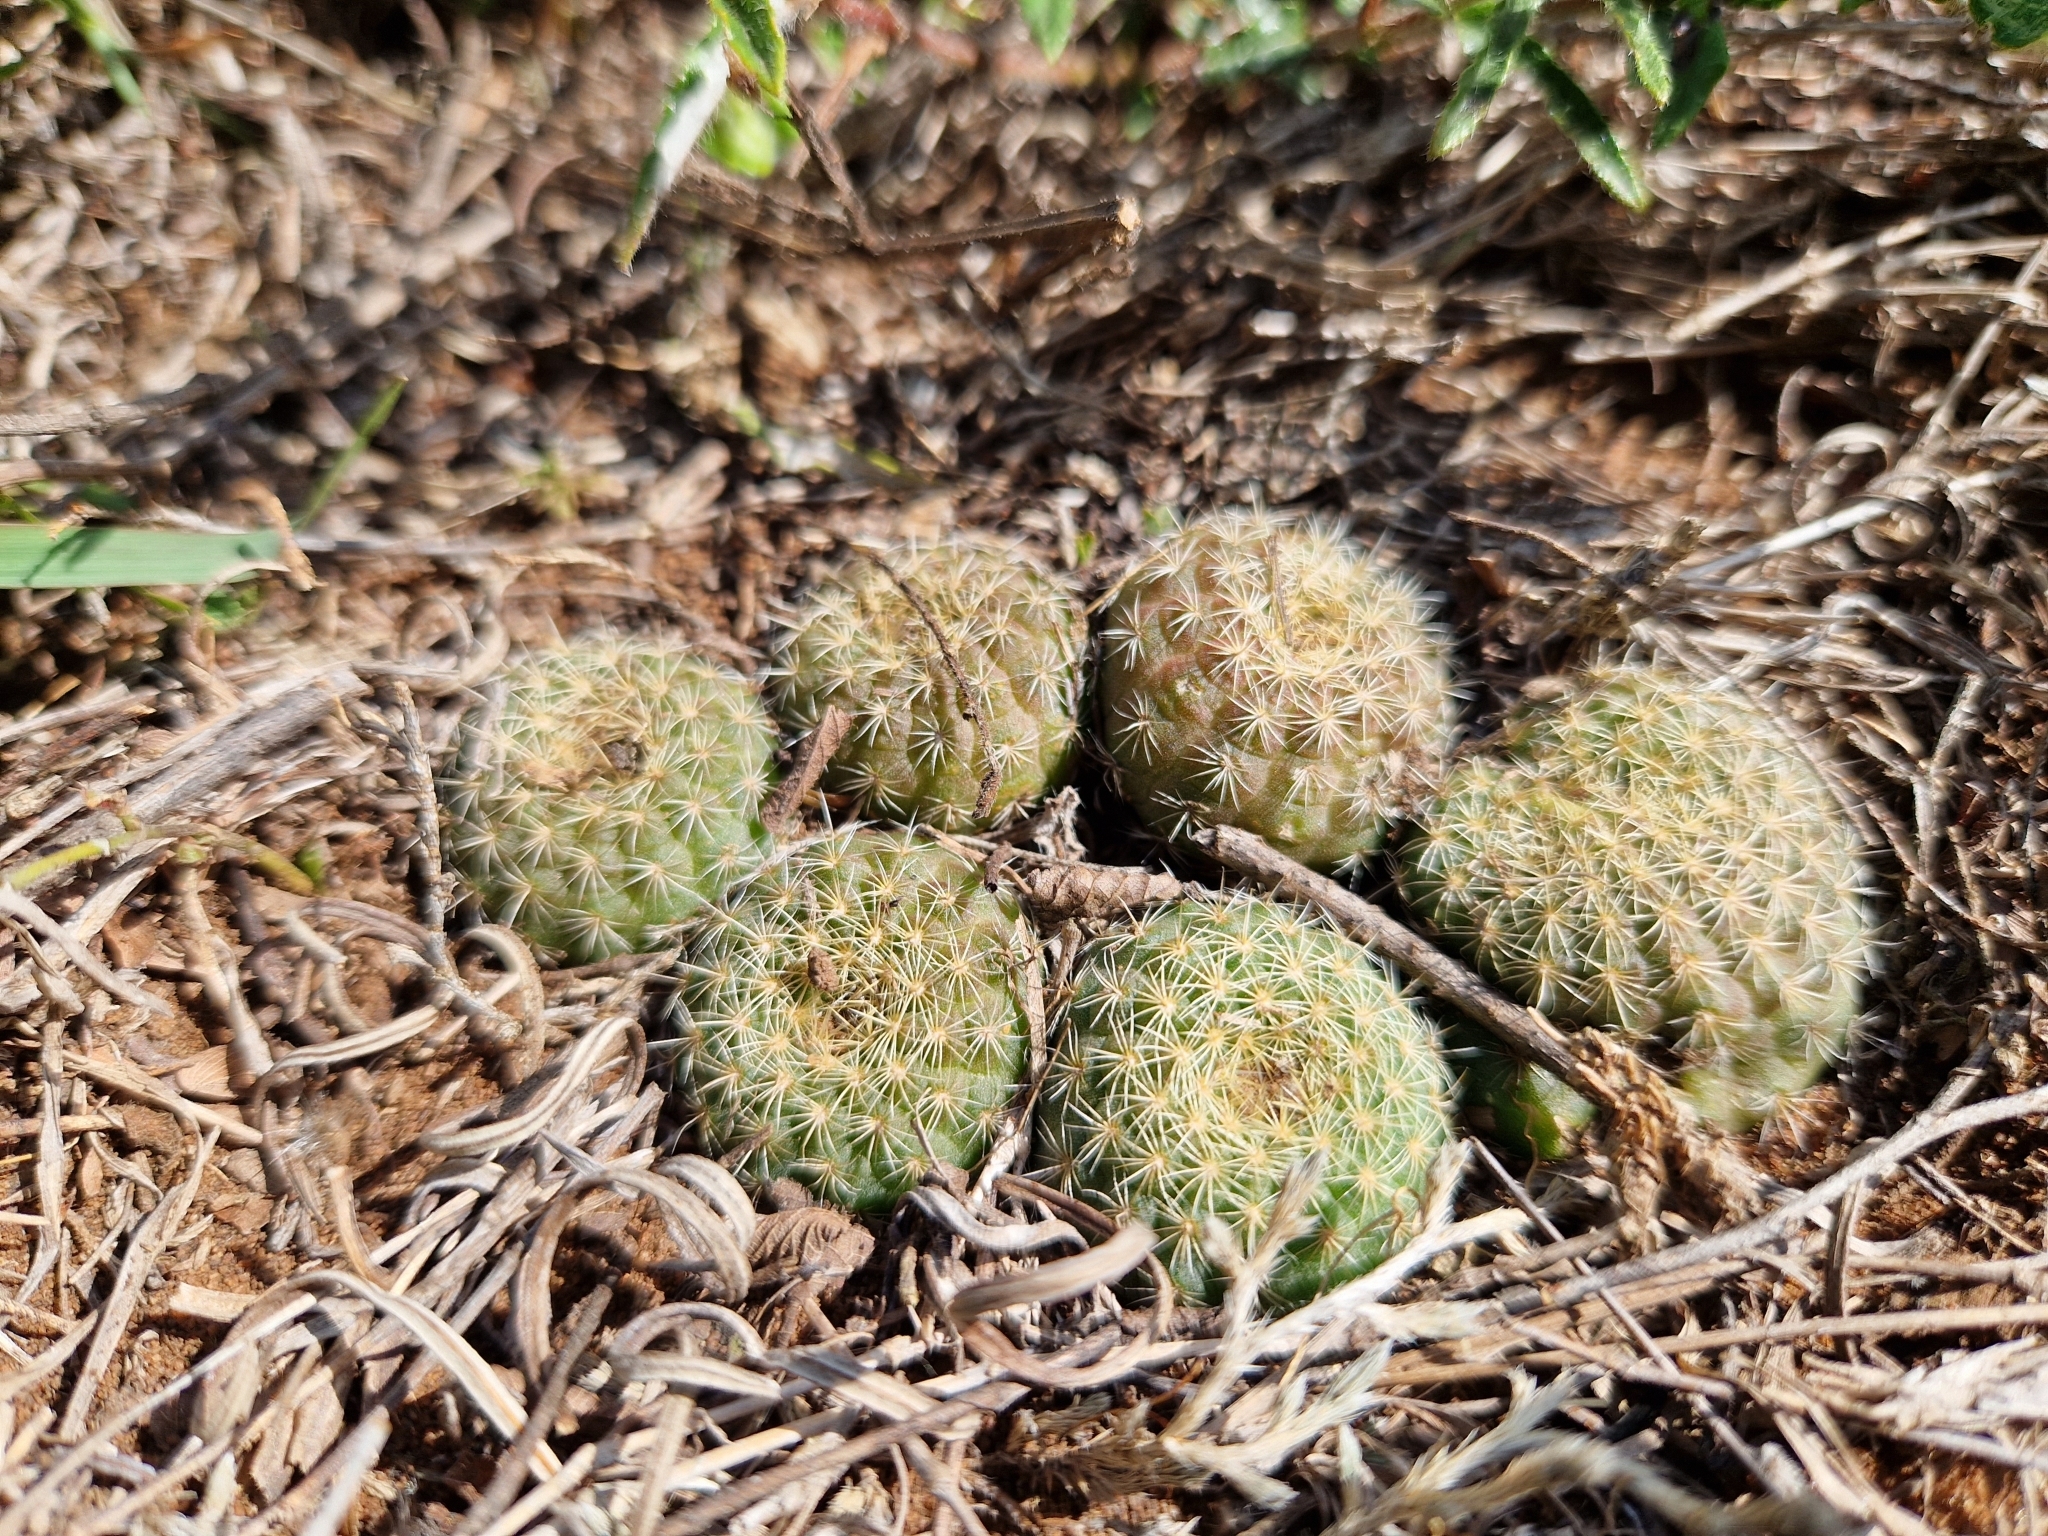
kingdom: Plantae
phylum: Tracheophyta
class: Magnoliopsida
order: Caryophyllales
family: Cactaceae
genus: Frailea
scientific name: Frailea pumila
